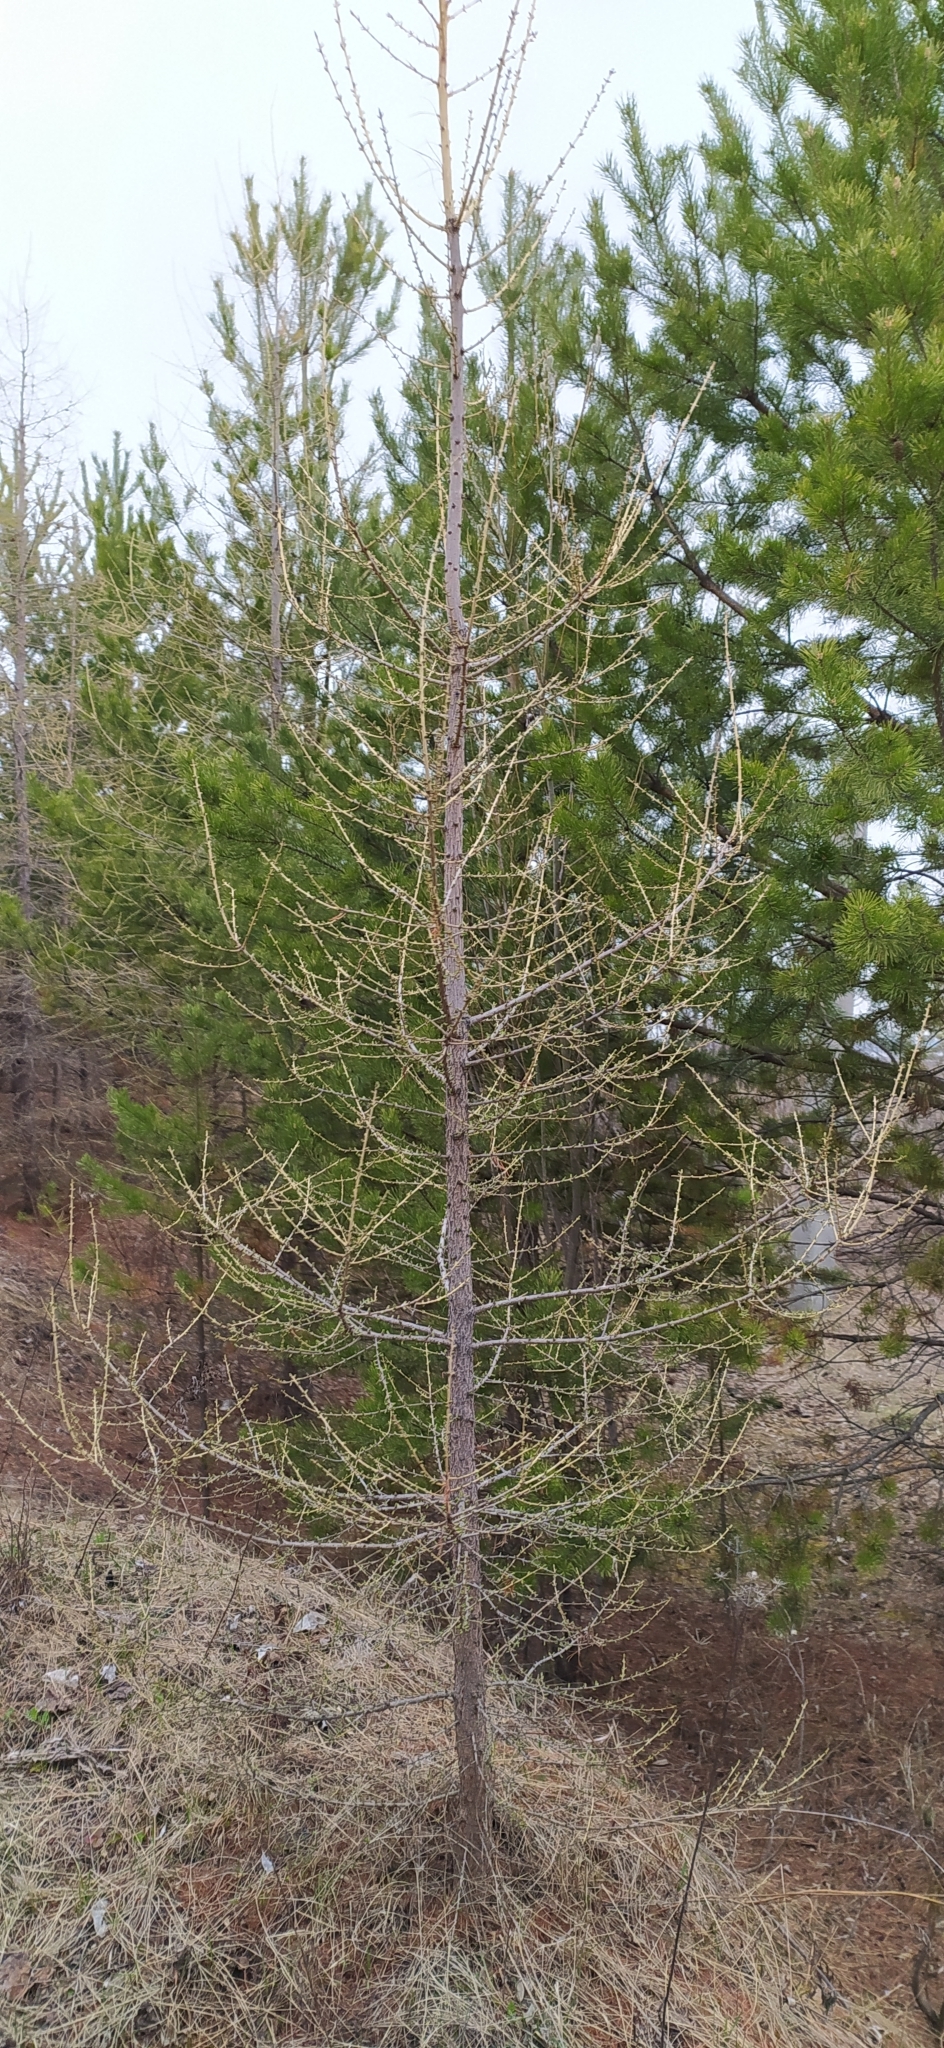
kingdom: Plantae
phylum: Tracheophyta
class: Pinopsida
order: Pinales
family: Pinaceae
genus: Larix
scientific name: Larix sibirica
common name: Siberian larch
